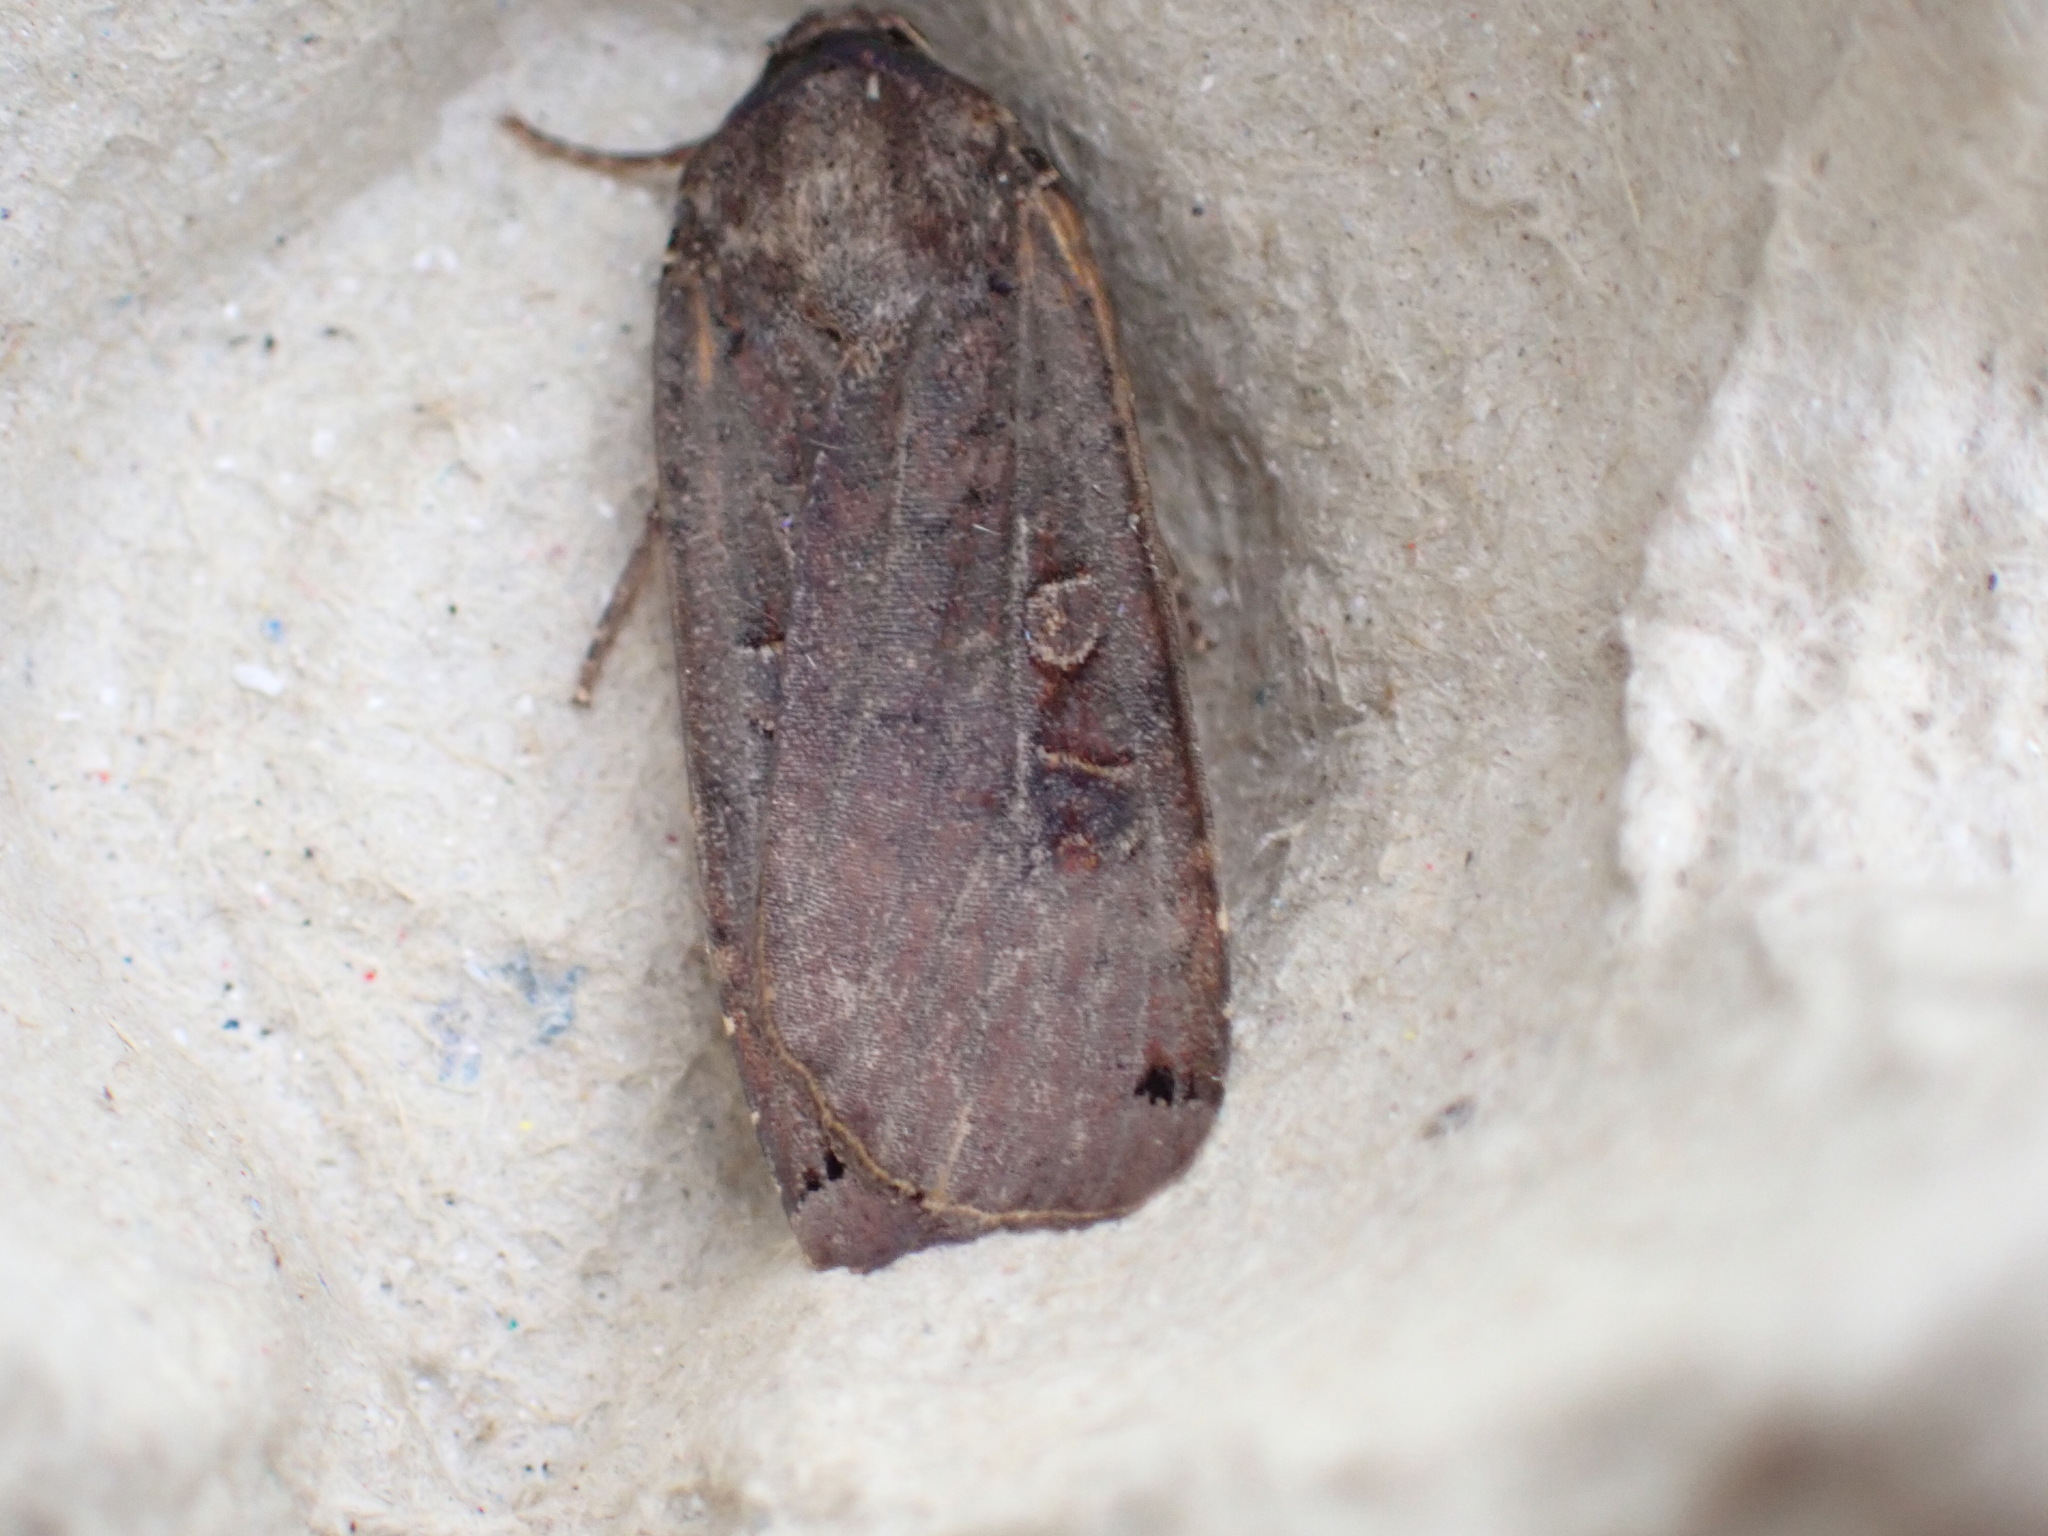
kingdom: Animalia
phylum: Arthropoda
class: Insecta
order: Lepidoptera
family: Noctuidae
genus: Noctua
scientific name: Noctua pronuba
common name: Large yellow underwing
